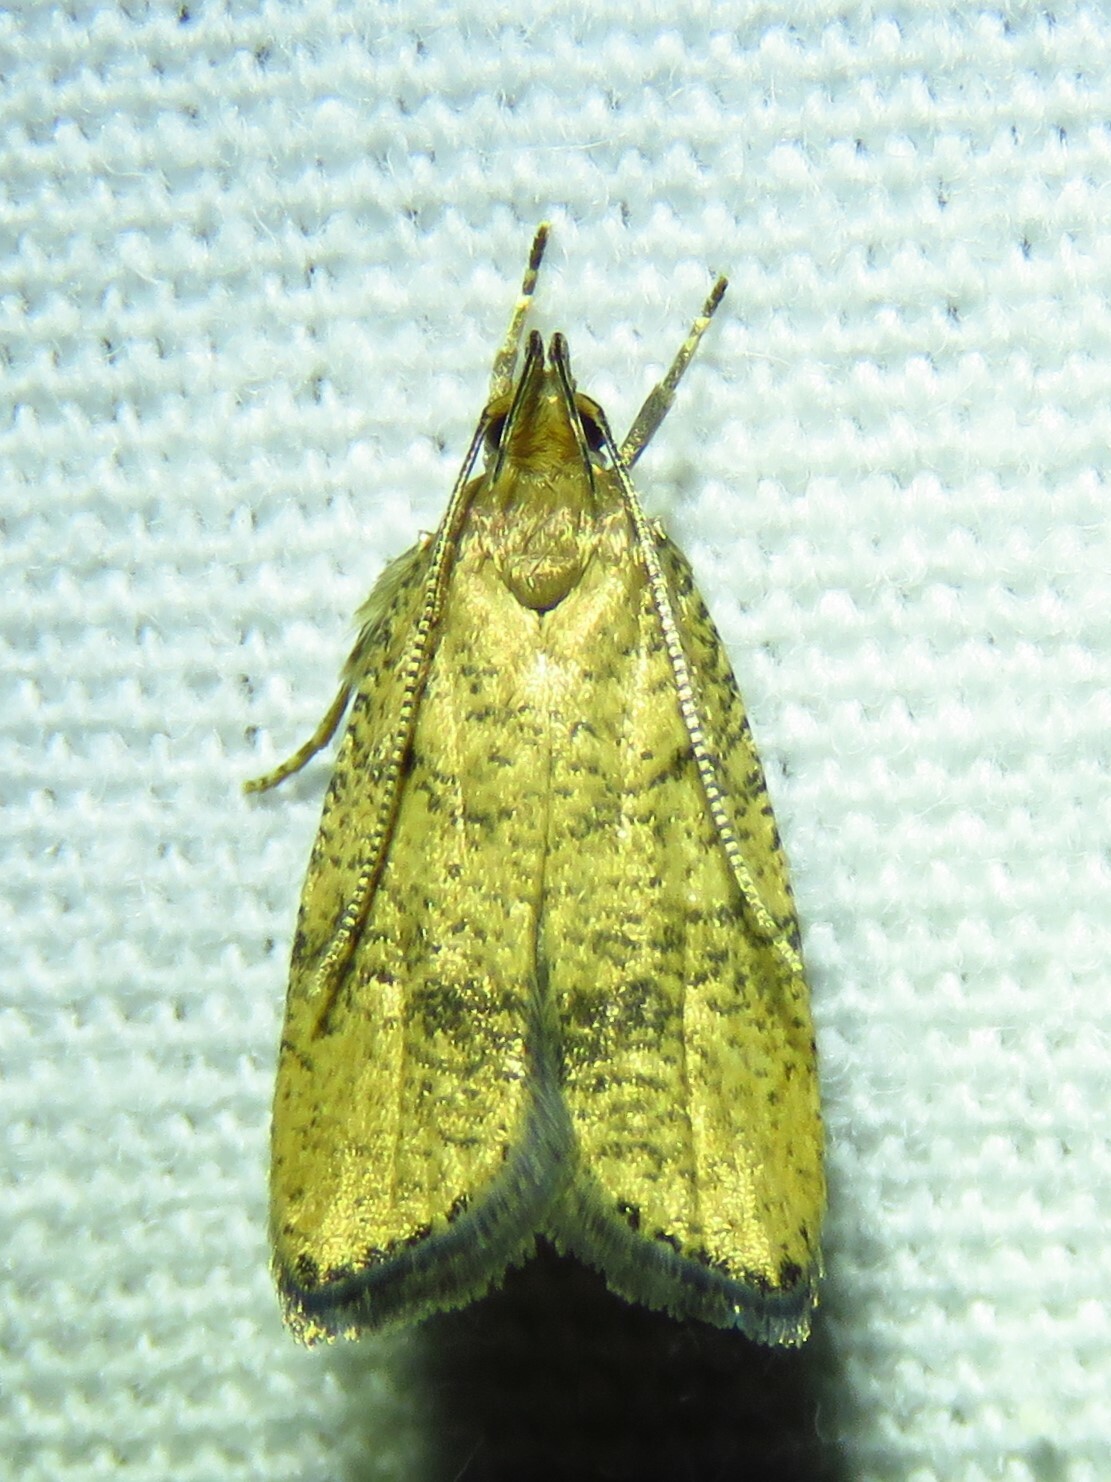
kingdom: Animalia
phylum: Arthropoda
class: Insecta
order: Lepidoptera
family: Depressariidae
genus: Psilocorsis
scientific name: Psilocorsis quercicella
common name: Oak leaftier moth
